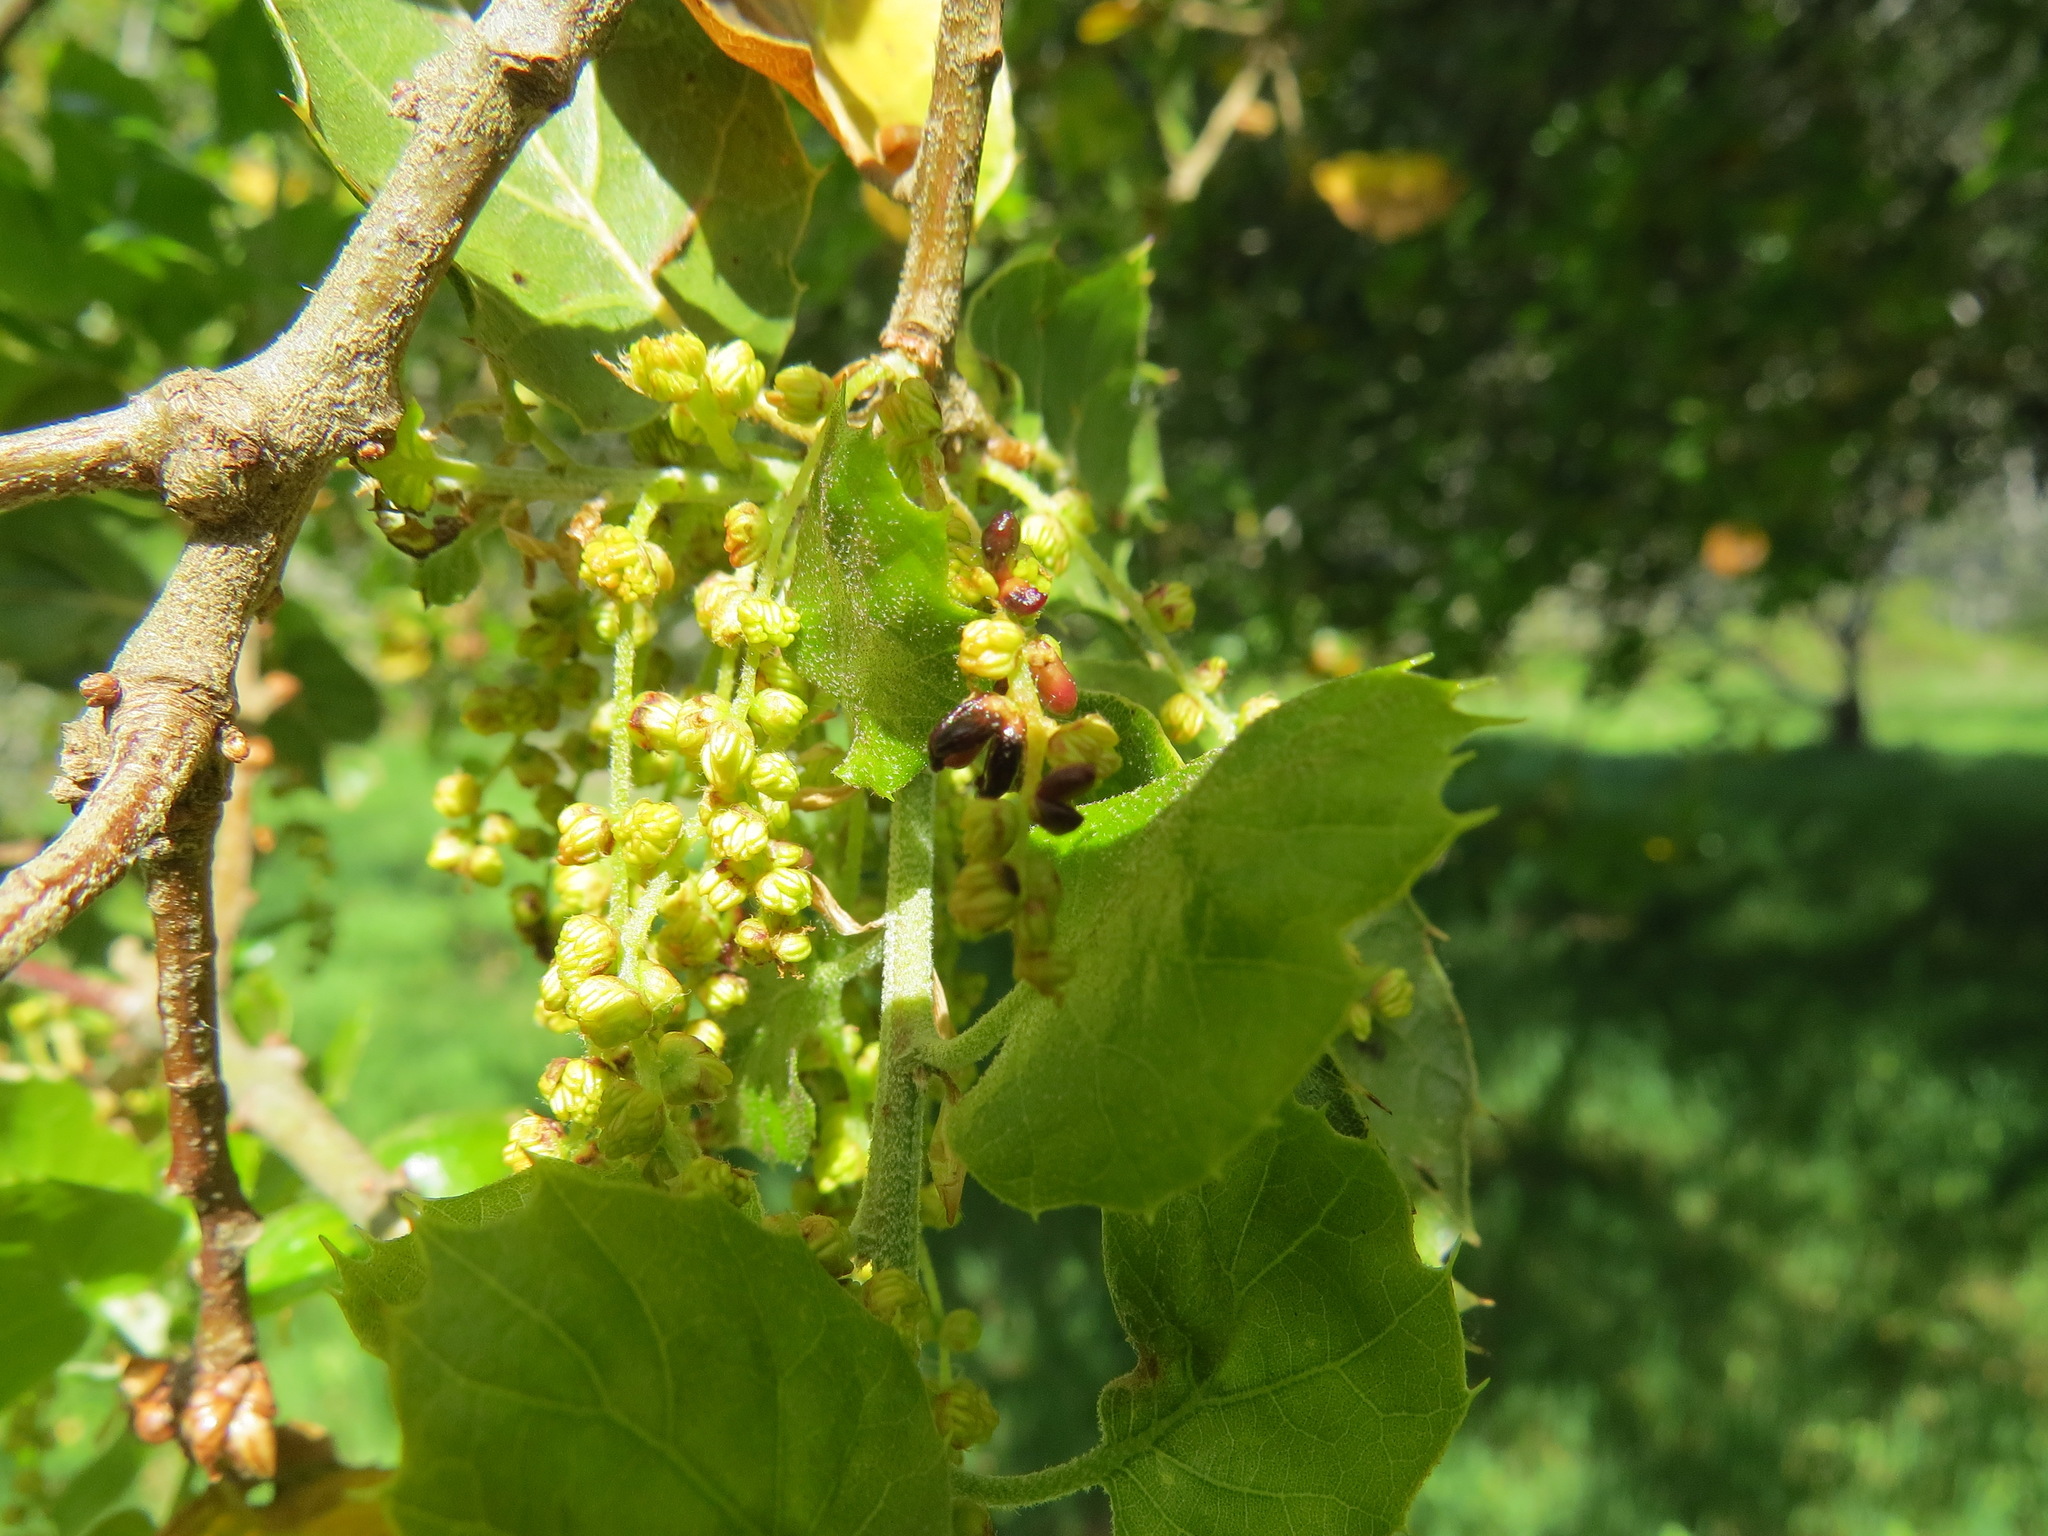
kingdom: Animalia
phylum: Arthropoda
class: Insecta
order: Hymenoptera
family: Cynipidae
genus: Dryocosmus
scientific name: Dryocosmus
